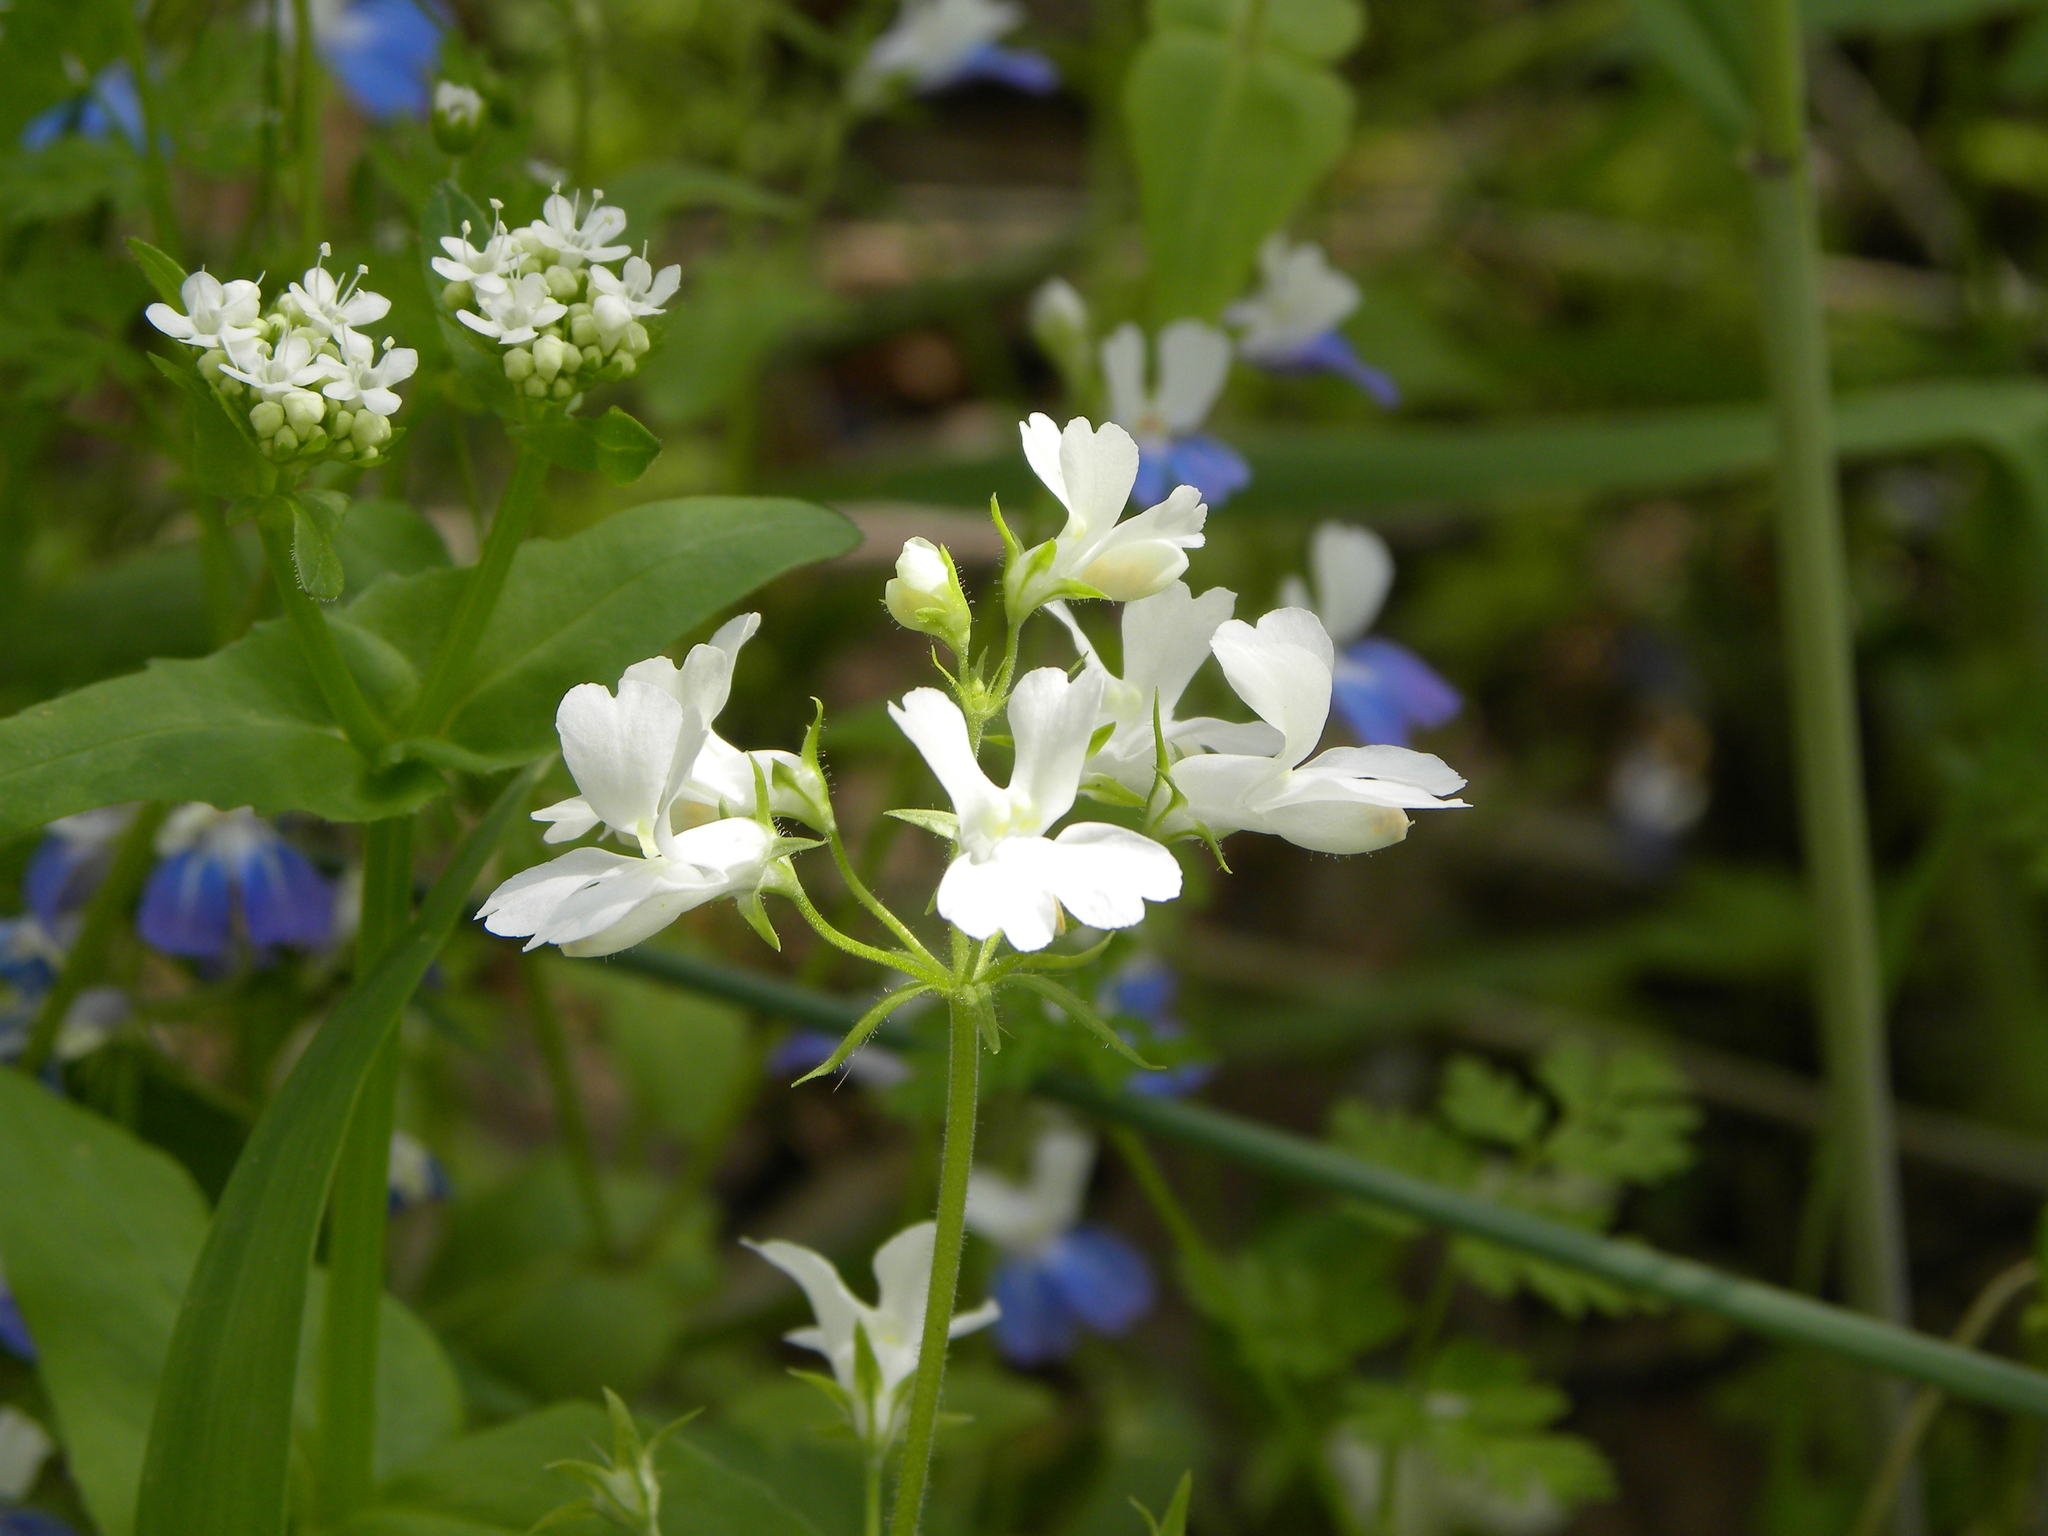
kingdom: Plantae
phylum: Tracheophyta
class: Magnoliopsida
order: Lamiales
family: Plantaginaceae
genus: Collinsia
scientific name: Collinsia verna
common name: Broad-leaved collinsia
